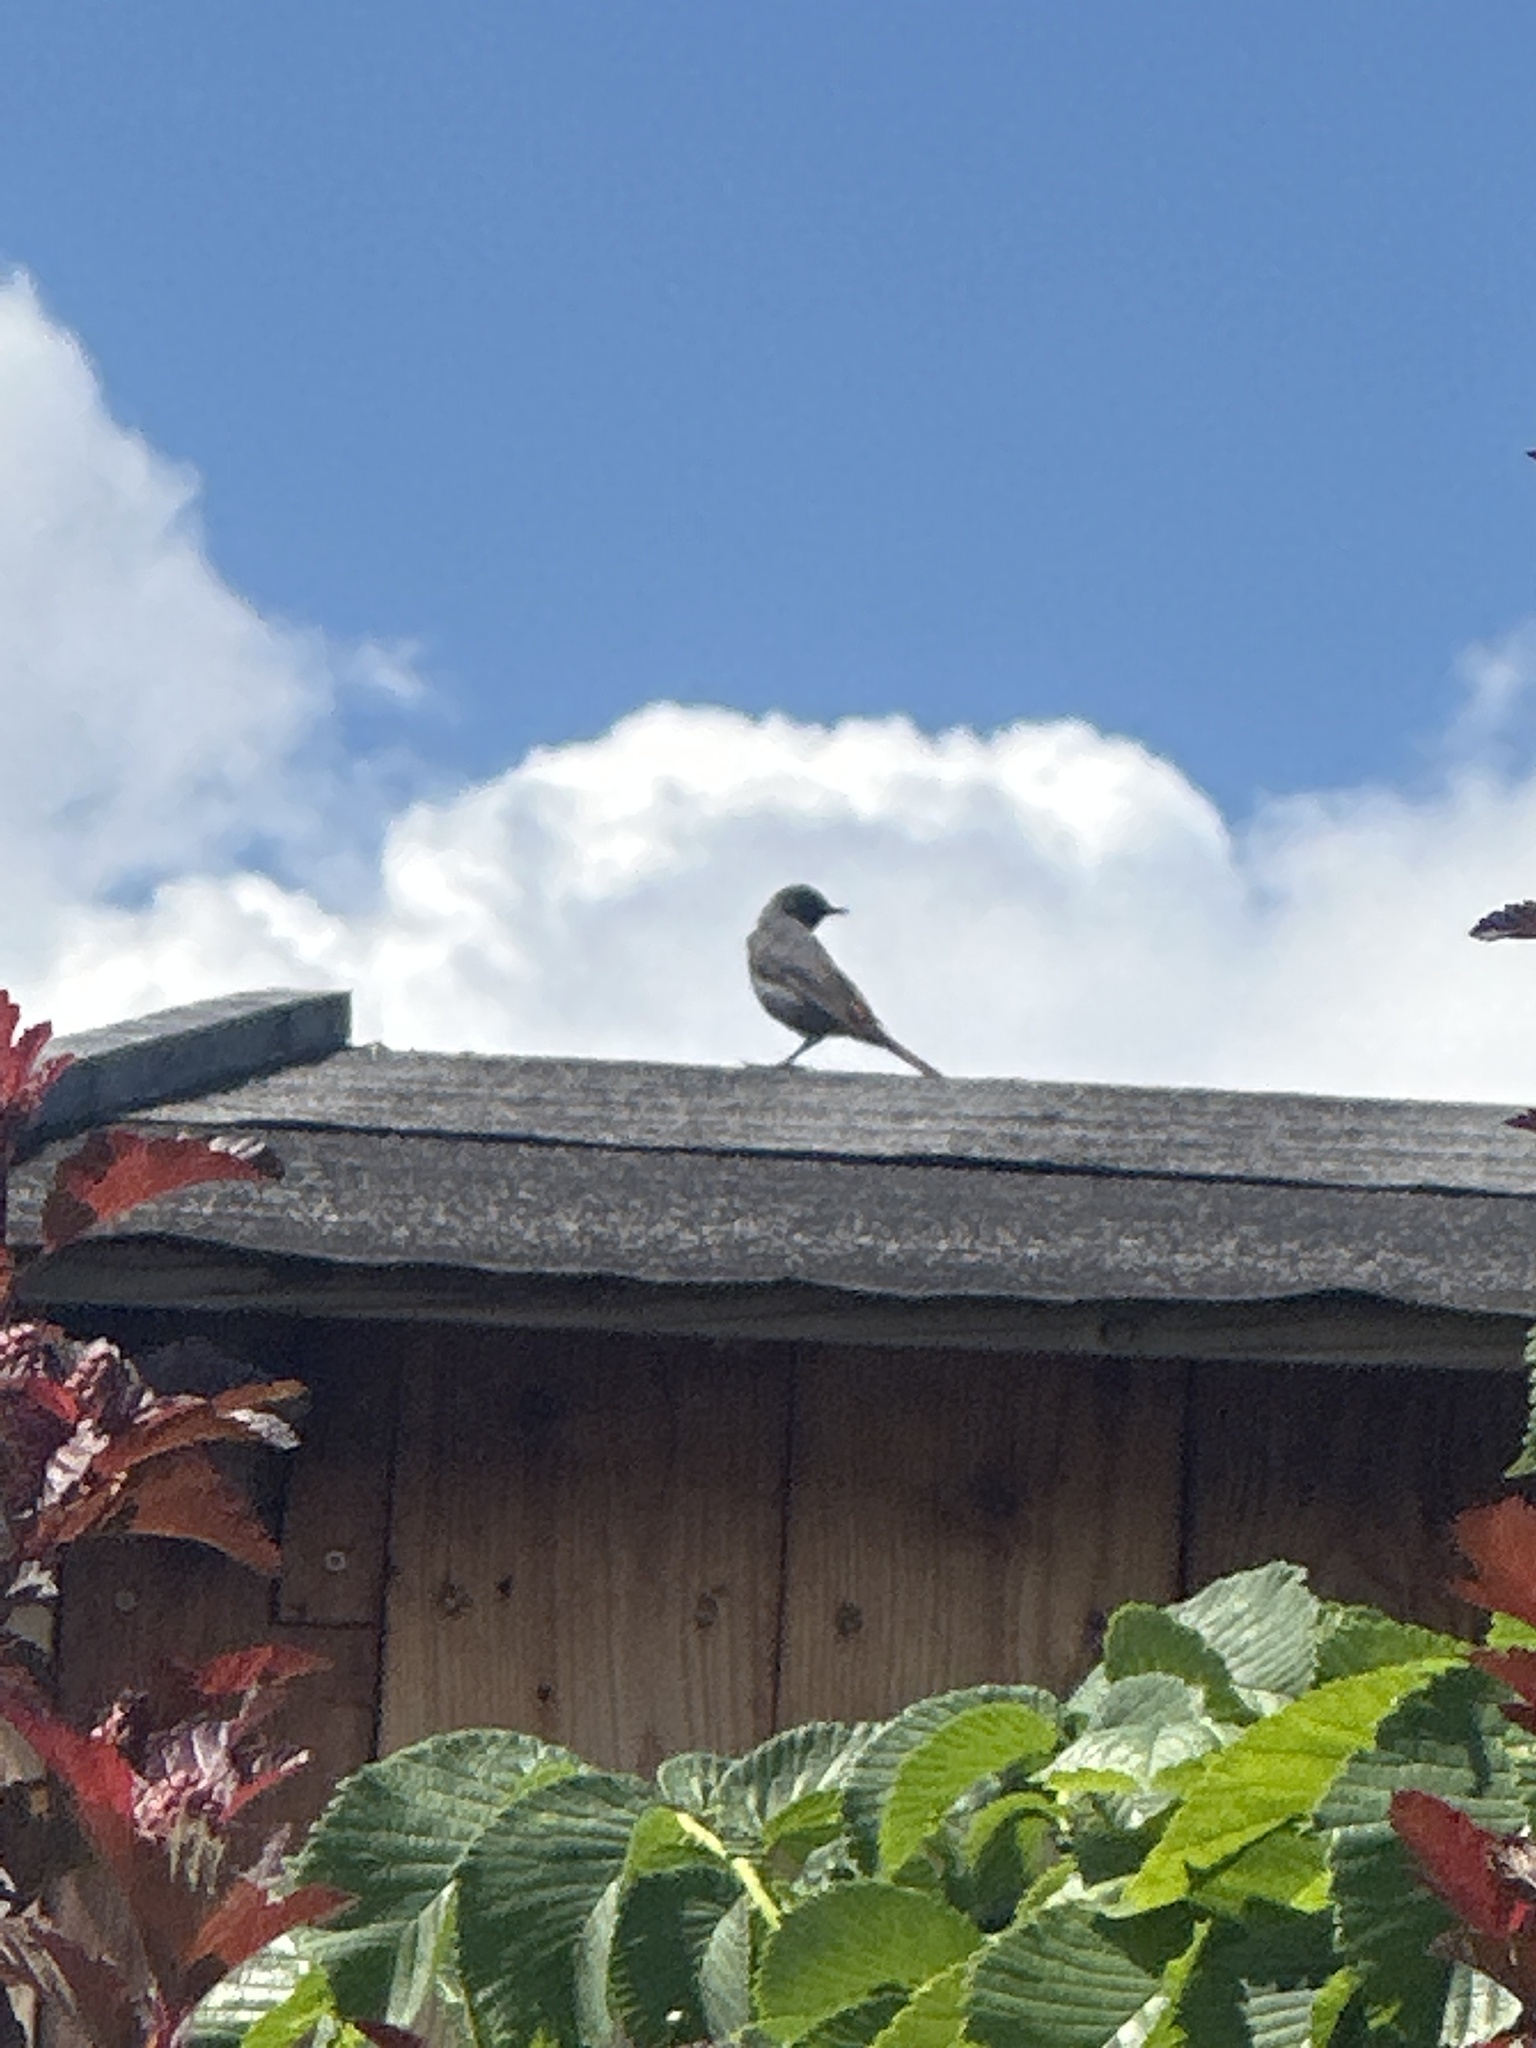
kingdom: Animalia
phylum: Chordata
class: Aves
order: Passeriformes
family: Muscicapidae
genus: Phoenicurus
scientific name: Phoenicurus ochruros
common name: Black redstart
